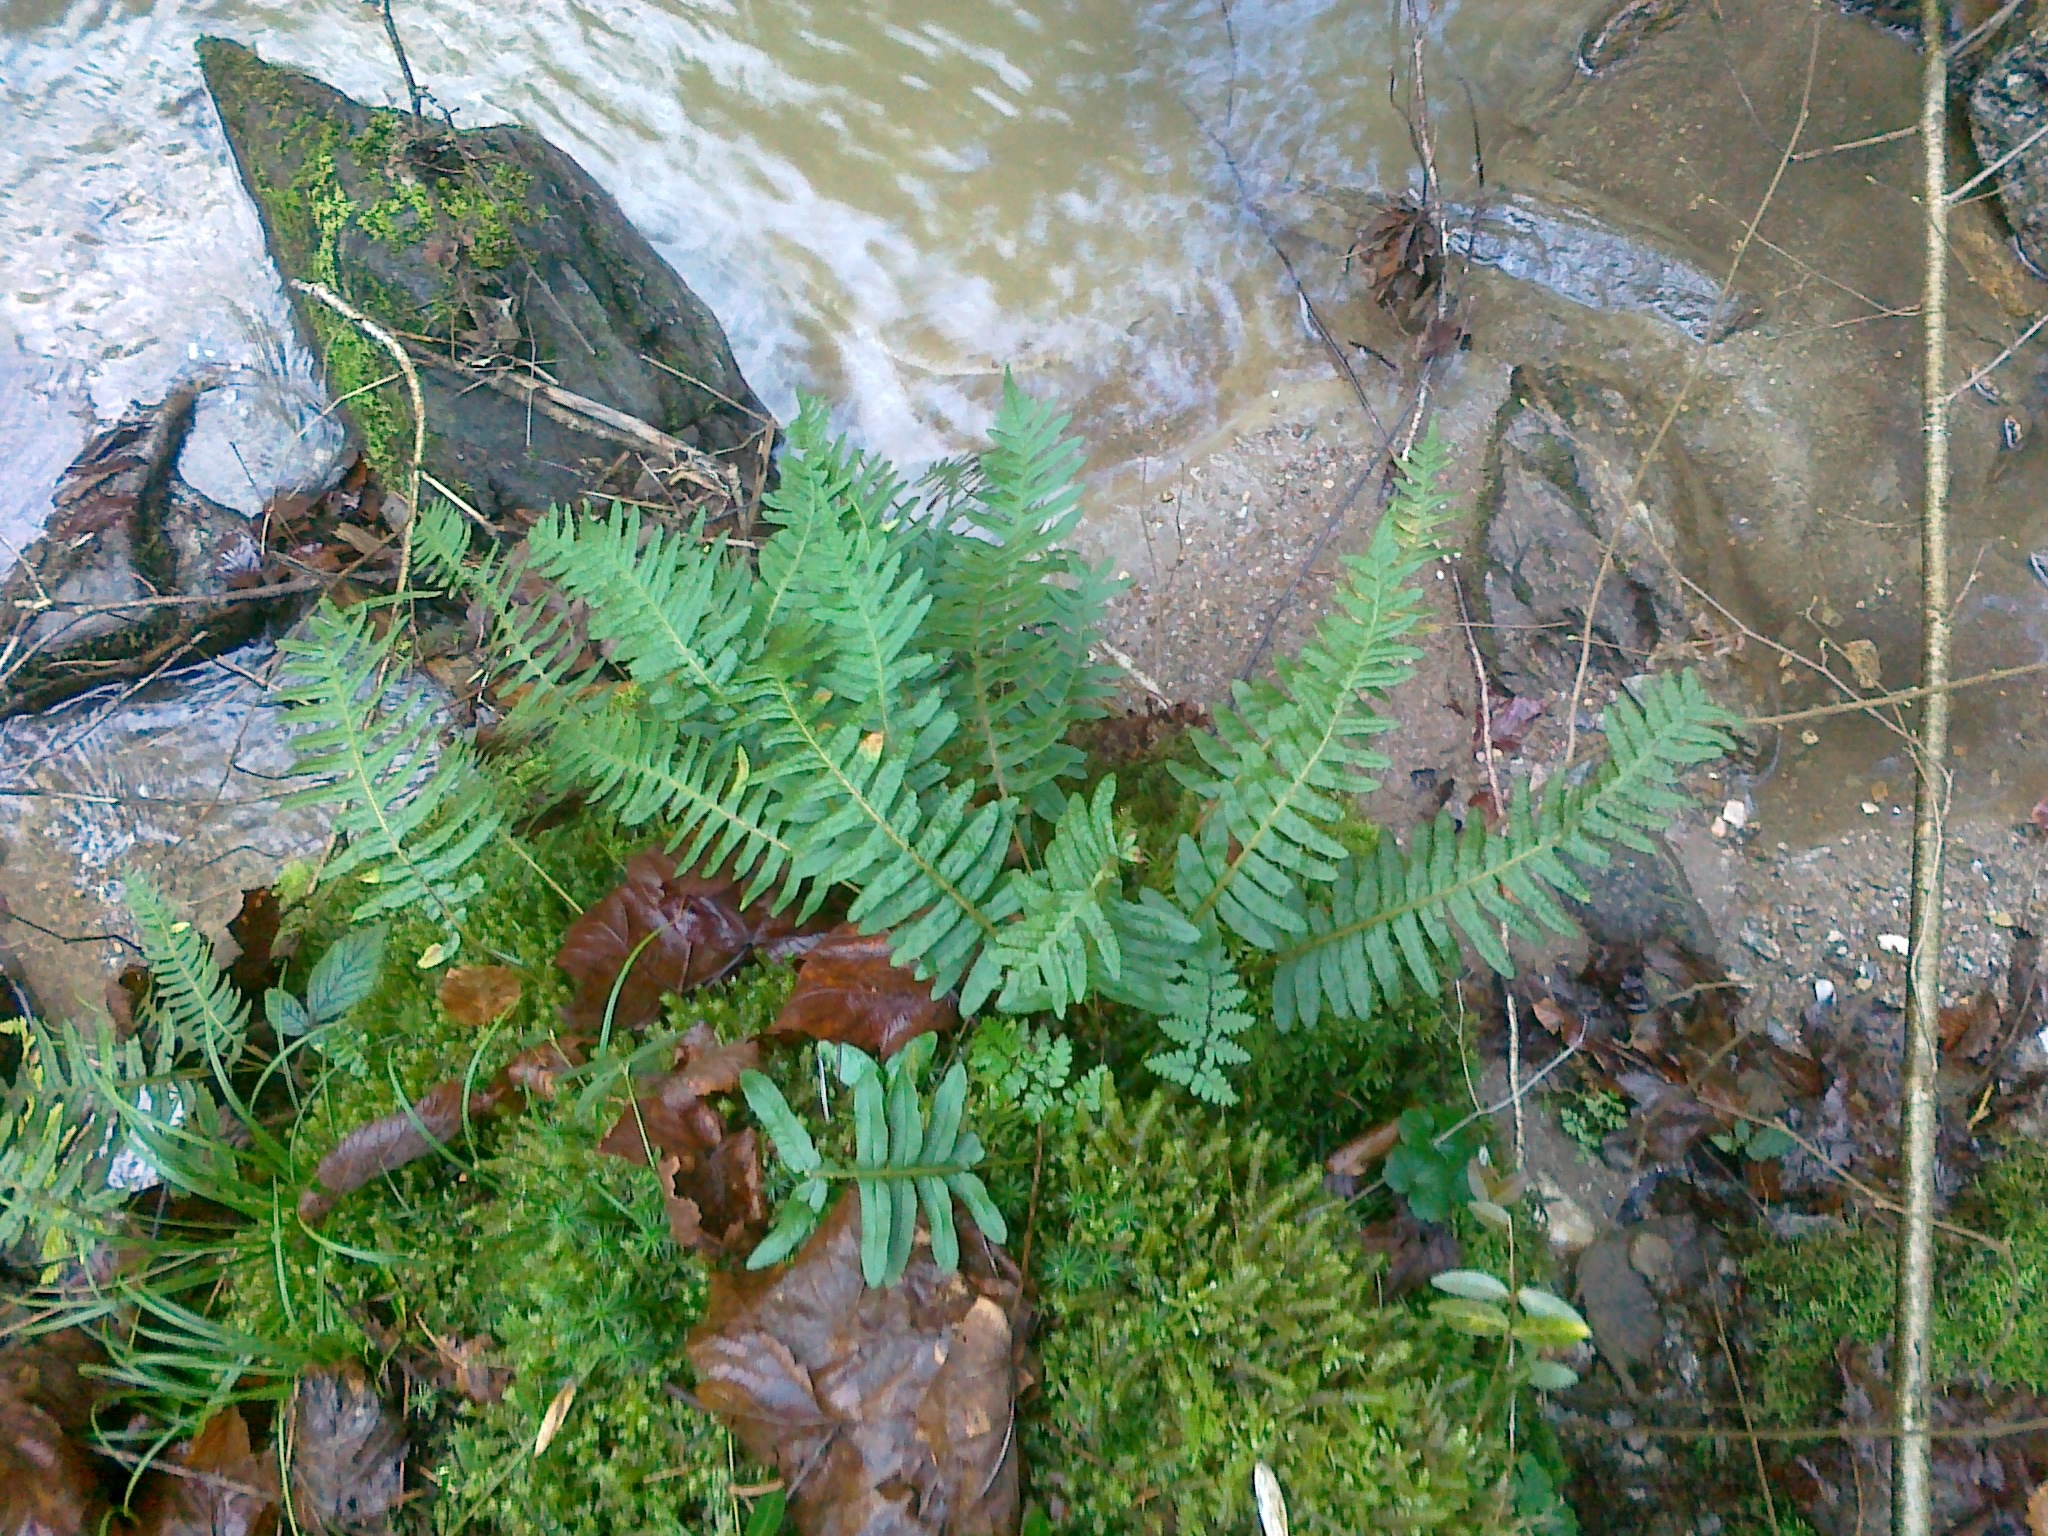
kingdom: Plantae
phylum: Tracheophyta
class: Polypodiopsida
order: Polypodiales
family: Polypodiaceae
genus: Polypodium
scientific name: Polypodium vulgare
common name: Common polypody
